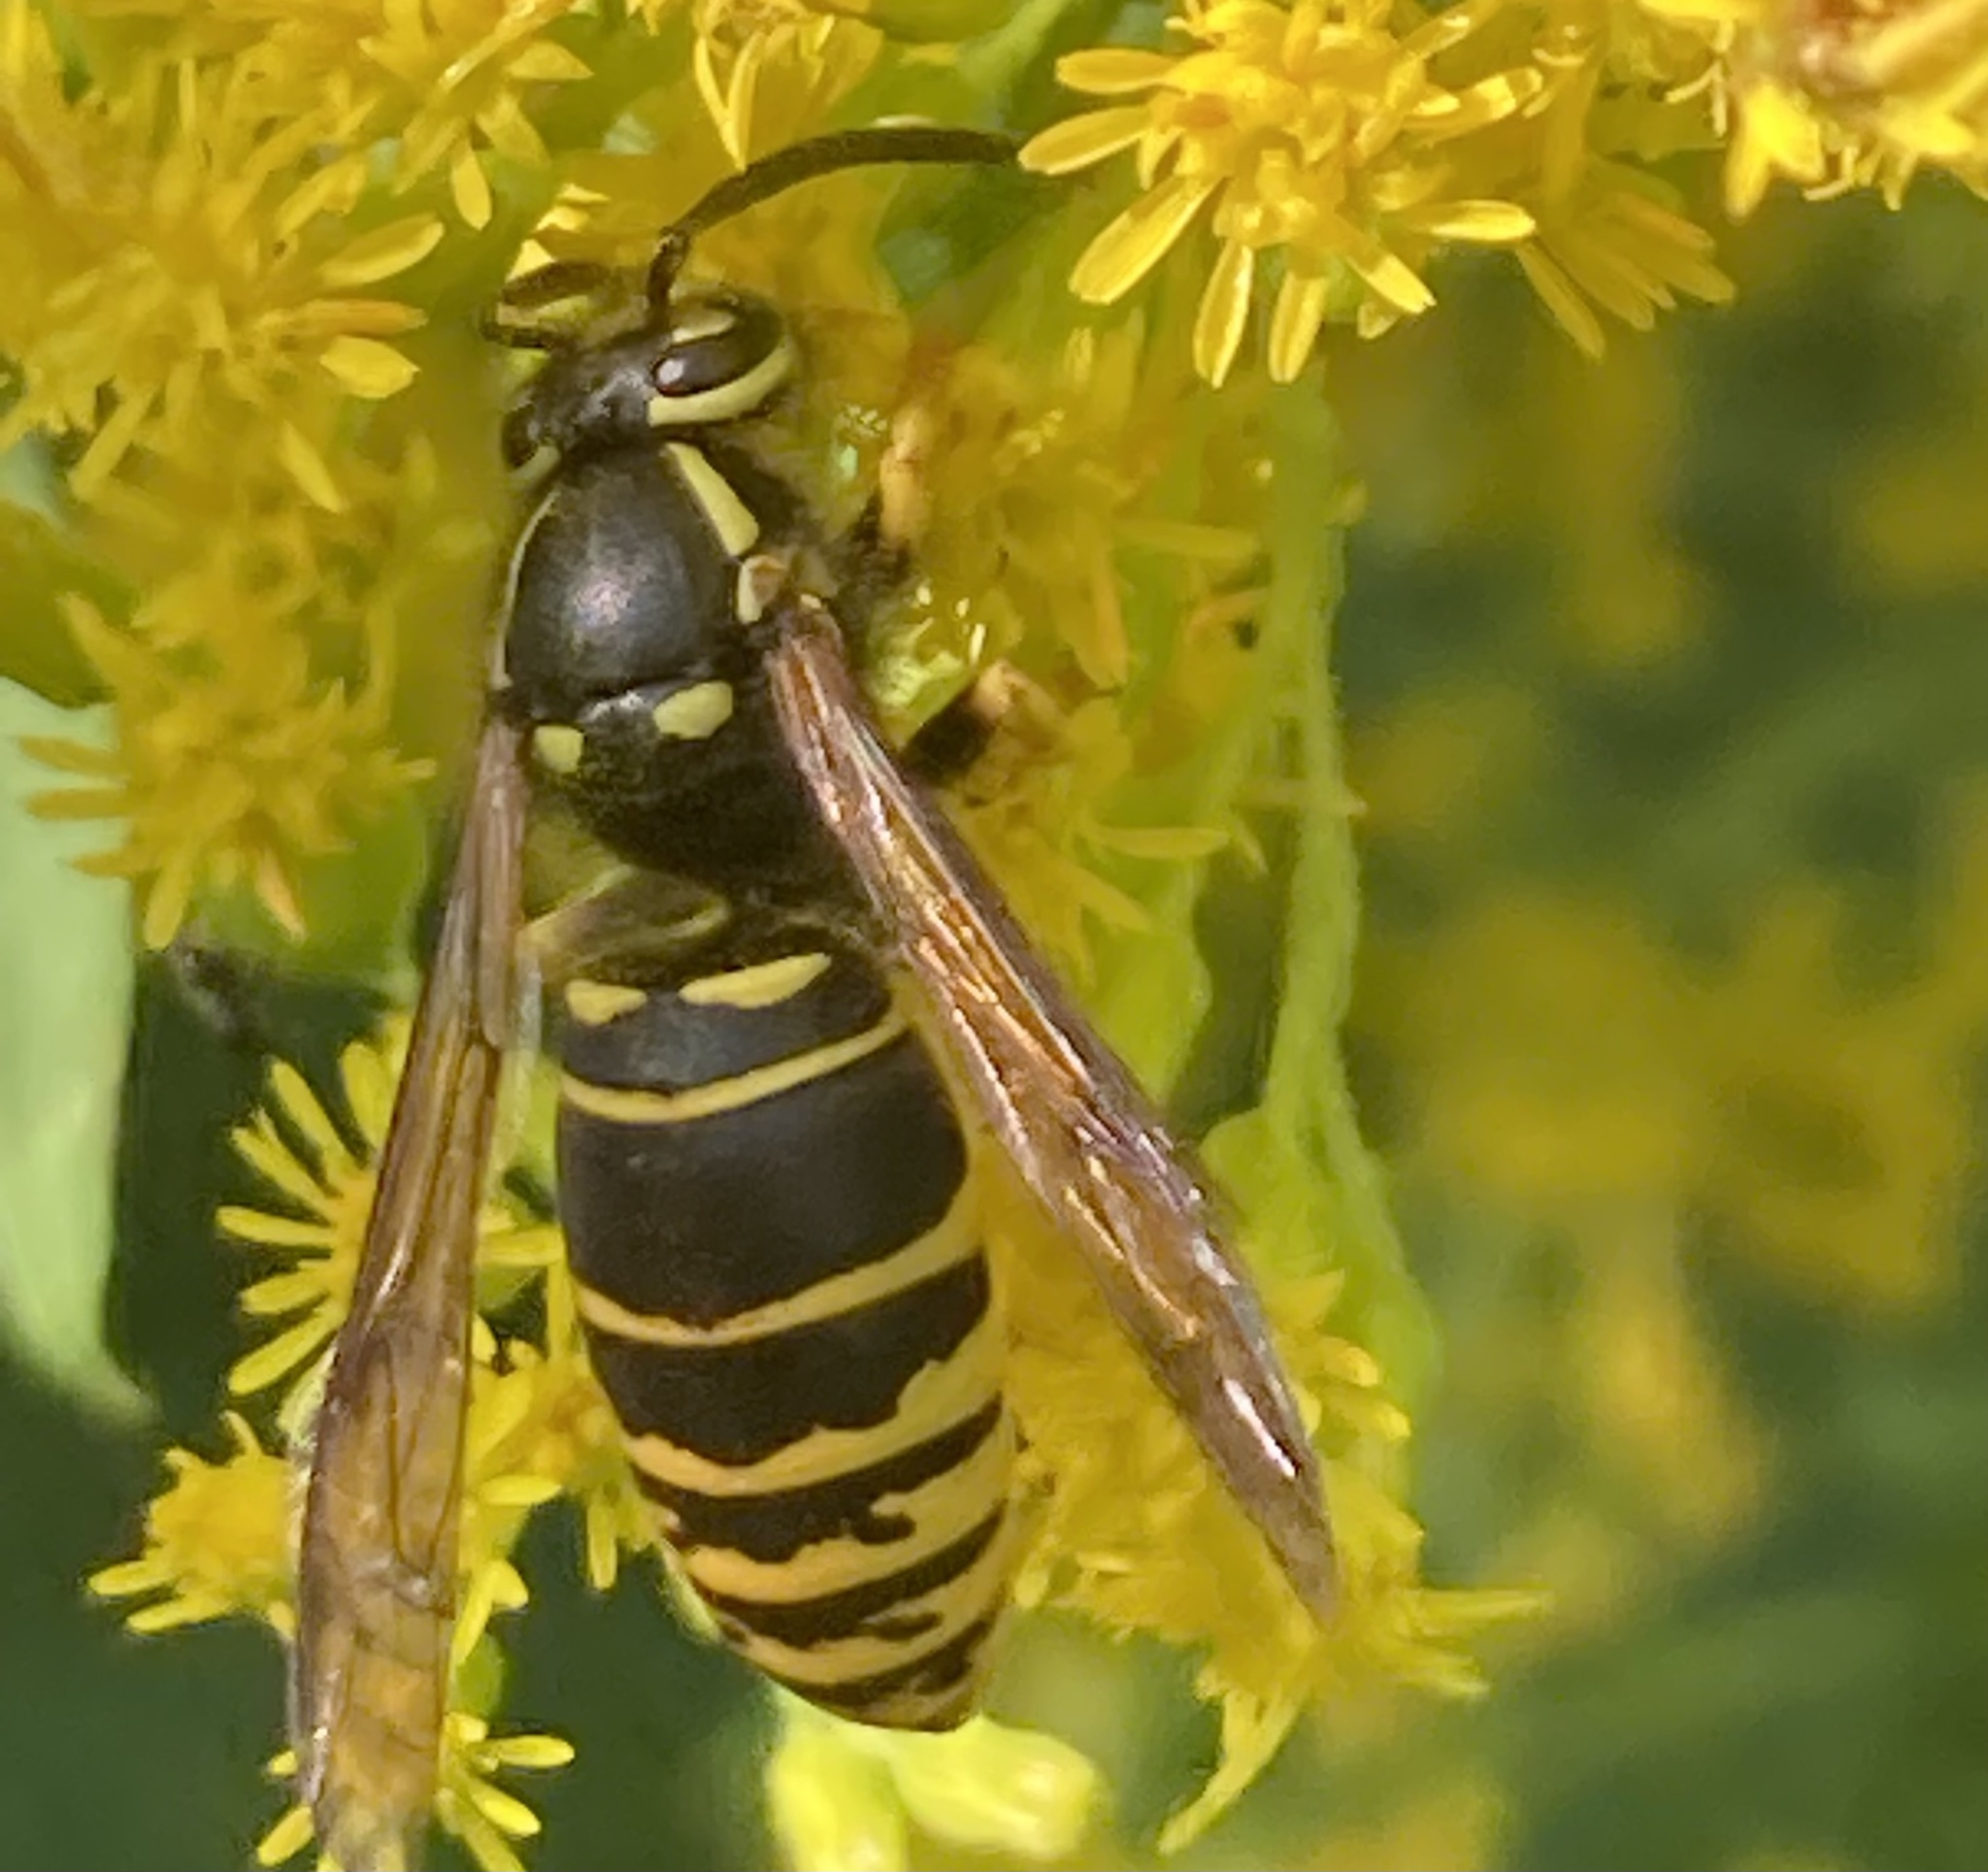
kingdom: Animalia
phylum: Arthropoda
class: Insecta
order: Hymenoptera
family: Vespidae
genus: Vespula
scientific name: Vespula vidua
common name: Widow yellowjacket
